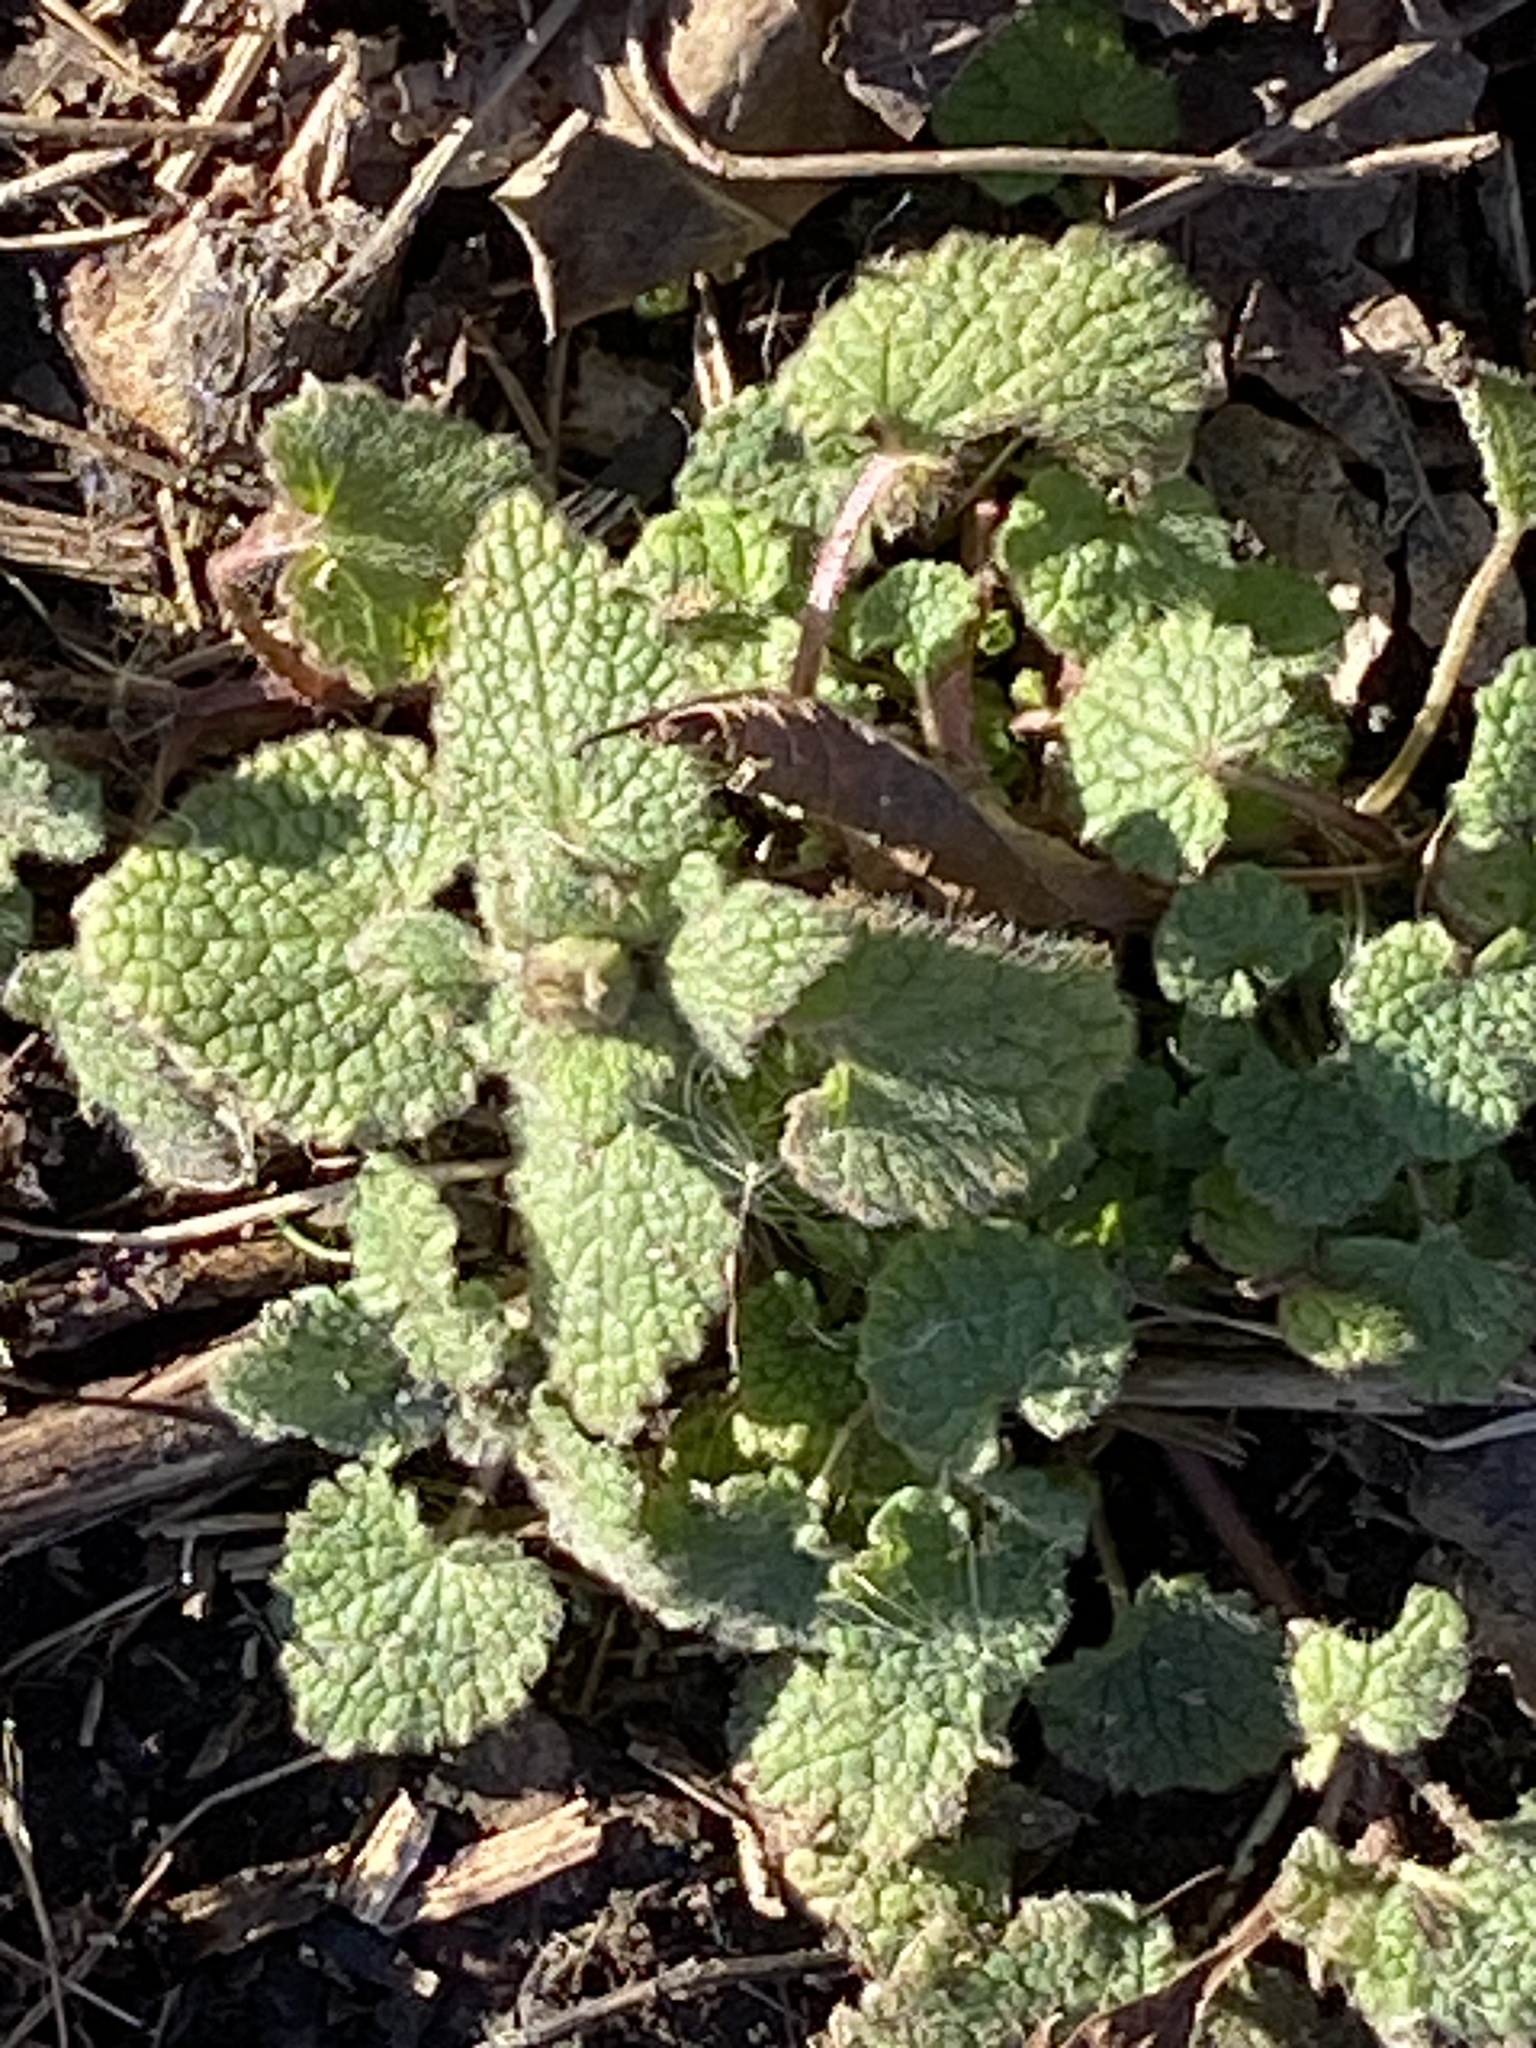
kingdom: Plantae
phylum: Tracheophyta
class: Magnoliopsida
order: Lamiales
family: Lamiaceae
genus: Lamium
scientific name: Lamium purpureum
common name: Red dead-nettle
